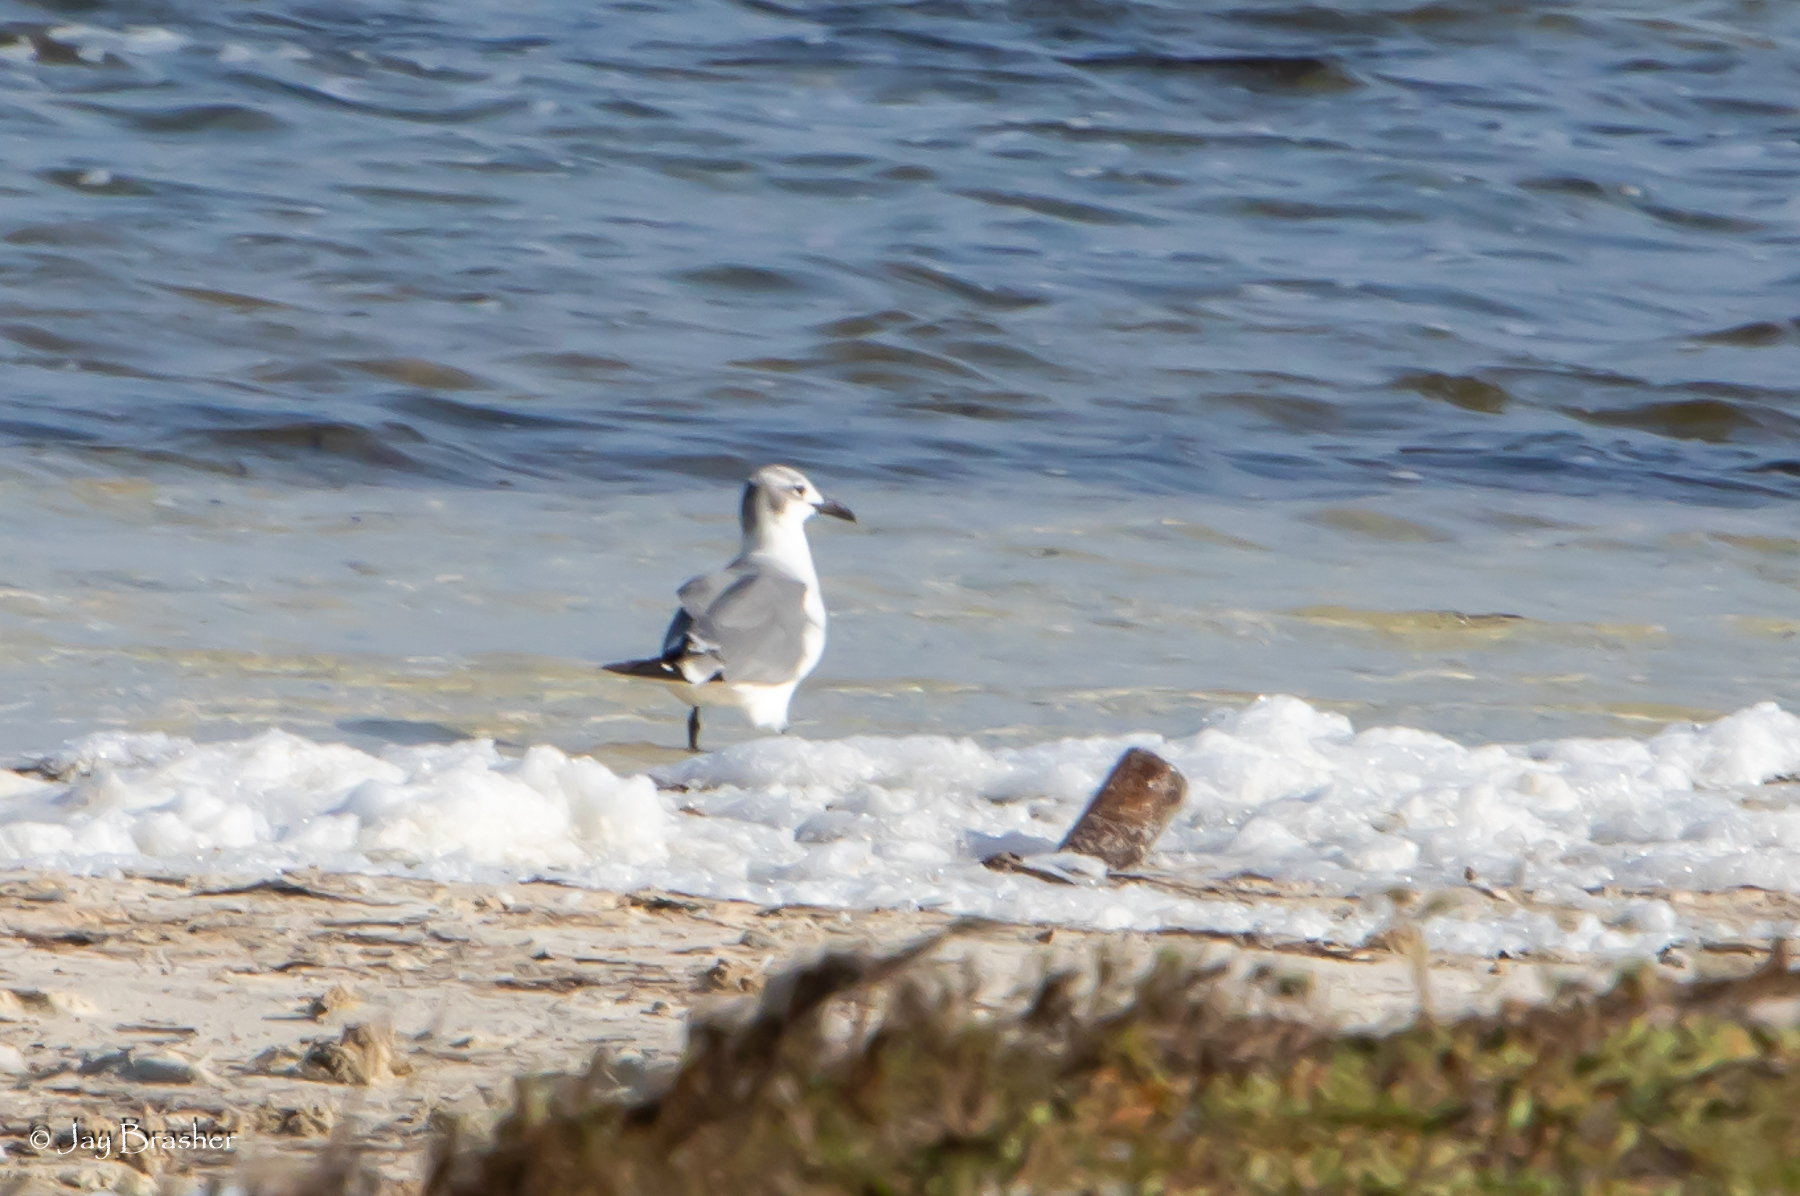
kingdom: Animalia
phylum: Chordata
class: Aves
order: Charadriiformes
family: Laridae
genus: Leucophaeus
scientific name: Leucophaeus atricilla
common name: Laughing gull
